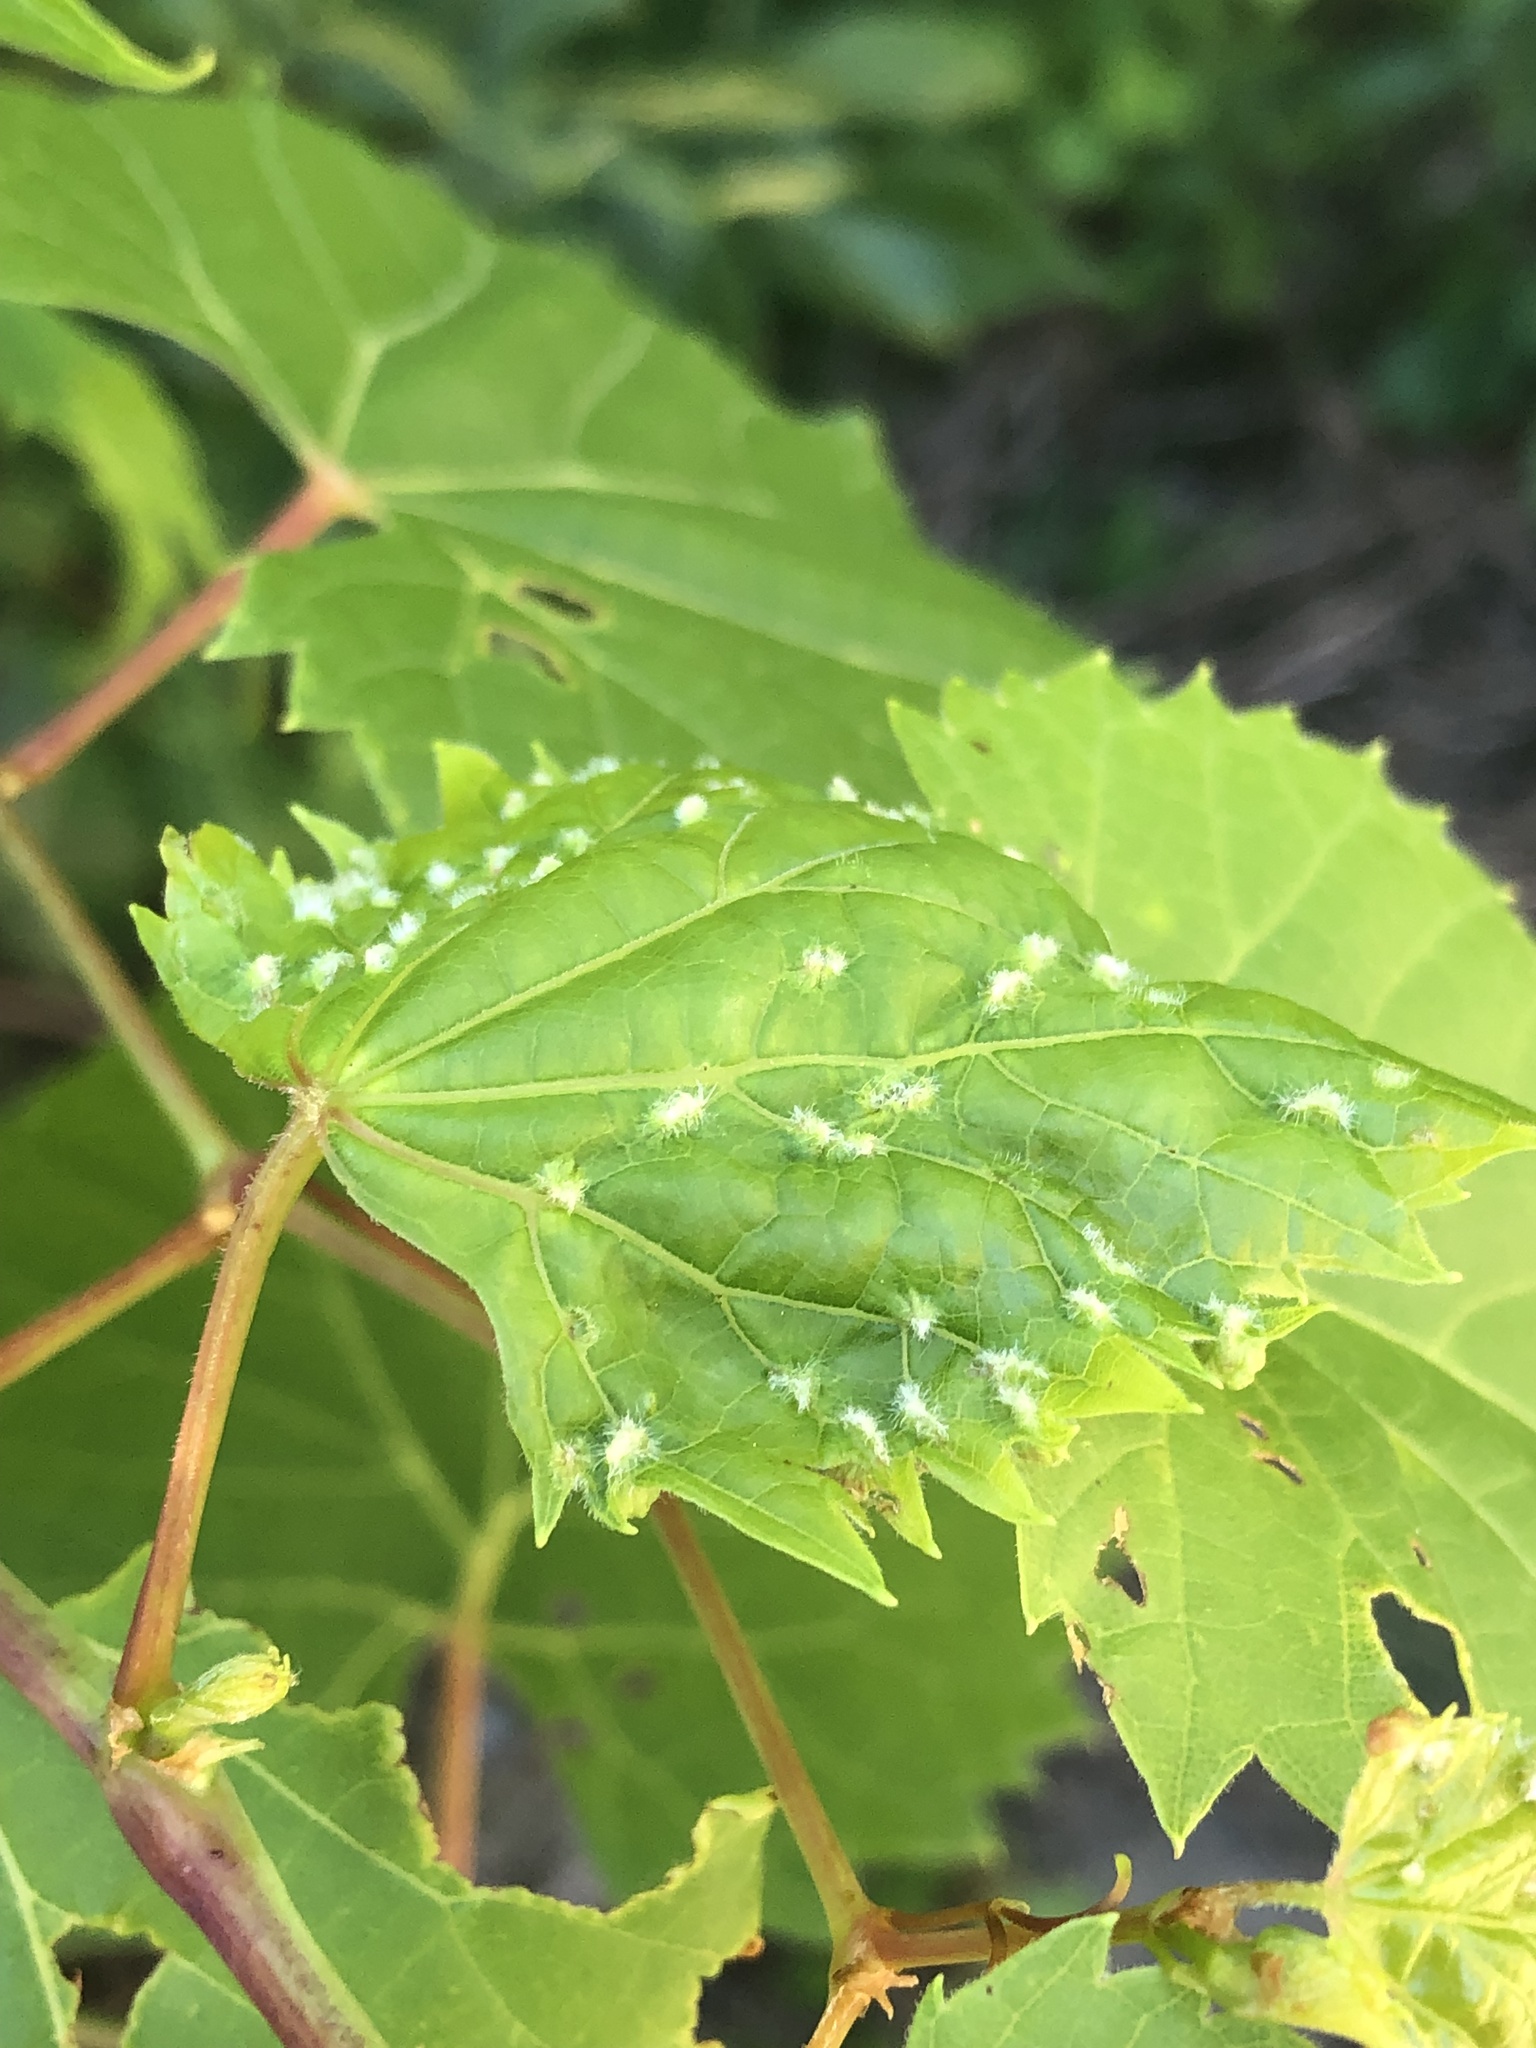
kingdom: Animalia
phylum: Arthropoda
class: Insecta
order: Hemiptera
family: Phylloxeridae
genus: Daktulosphaira
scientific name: Daktulosphaira vitifoliae
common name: Grape phylloxera
